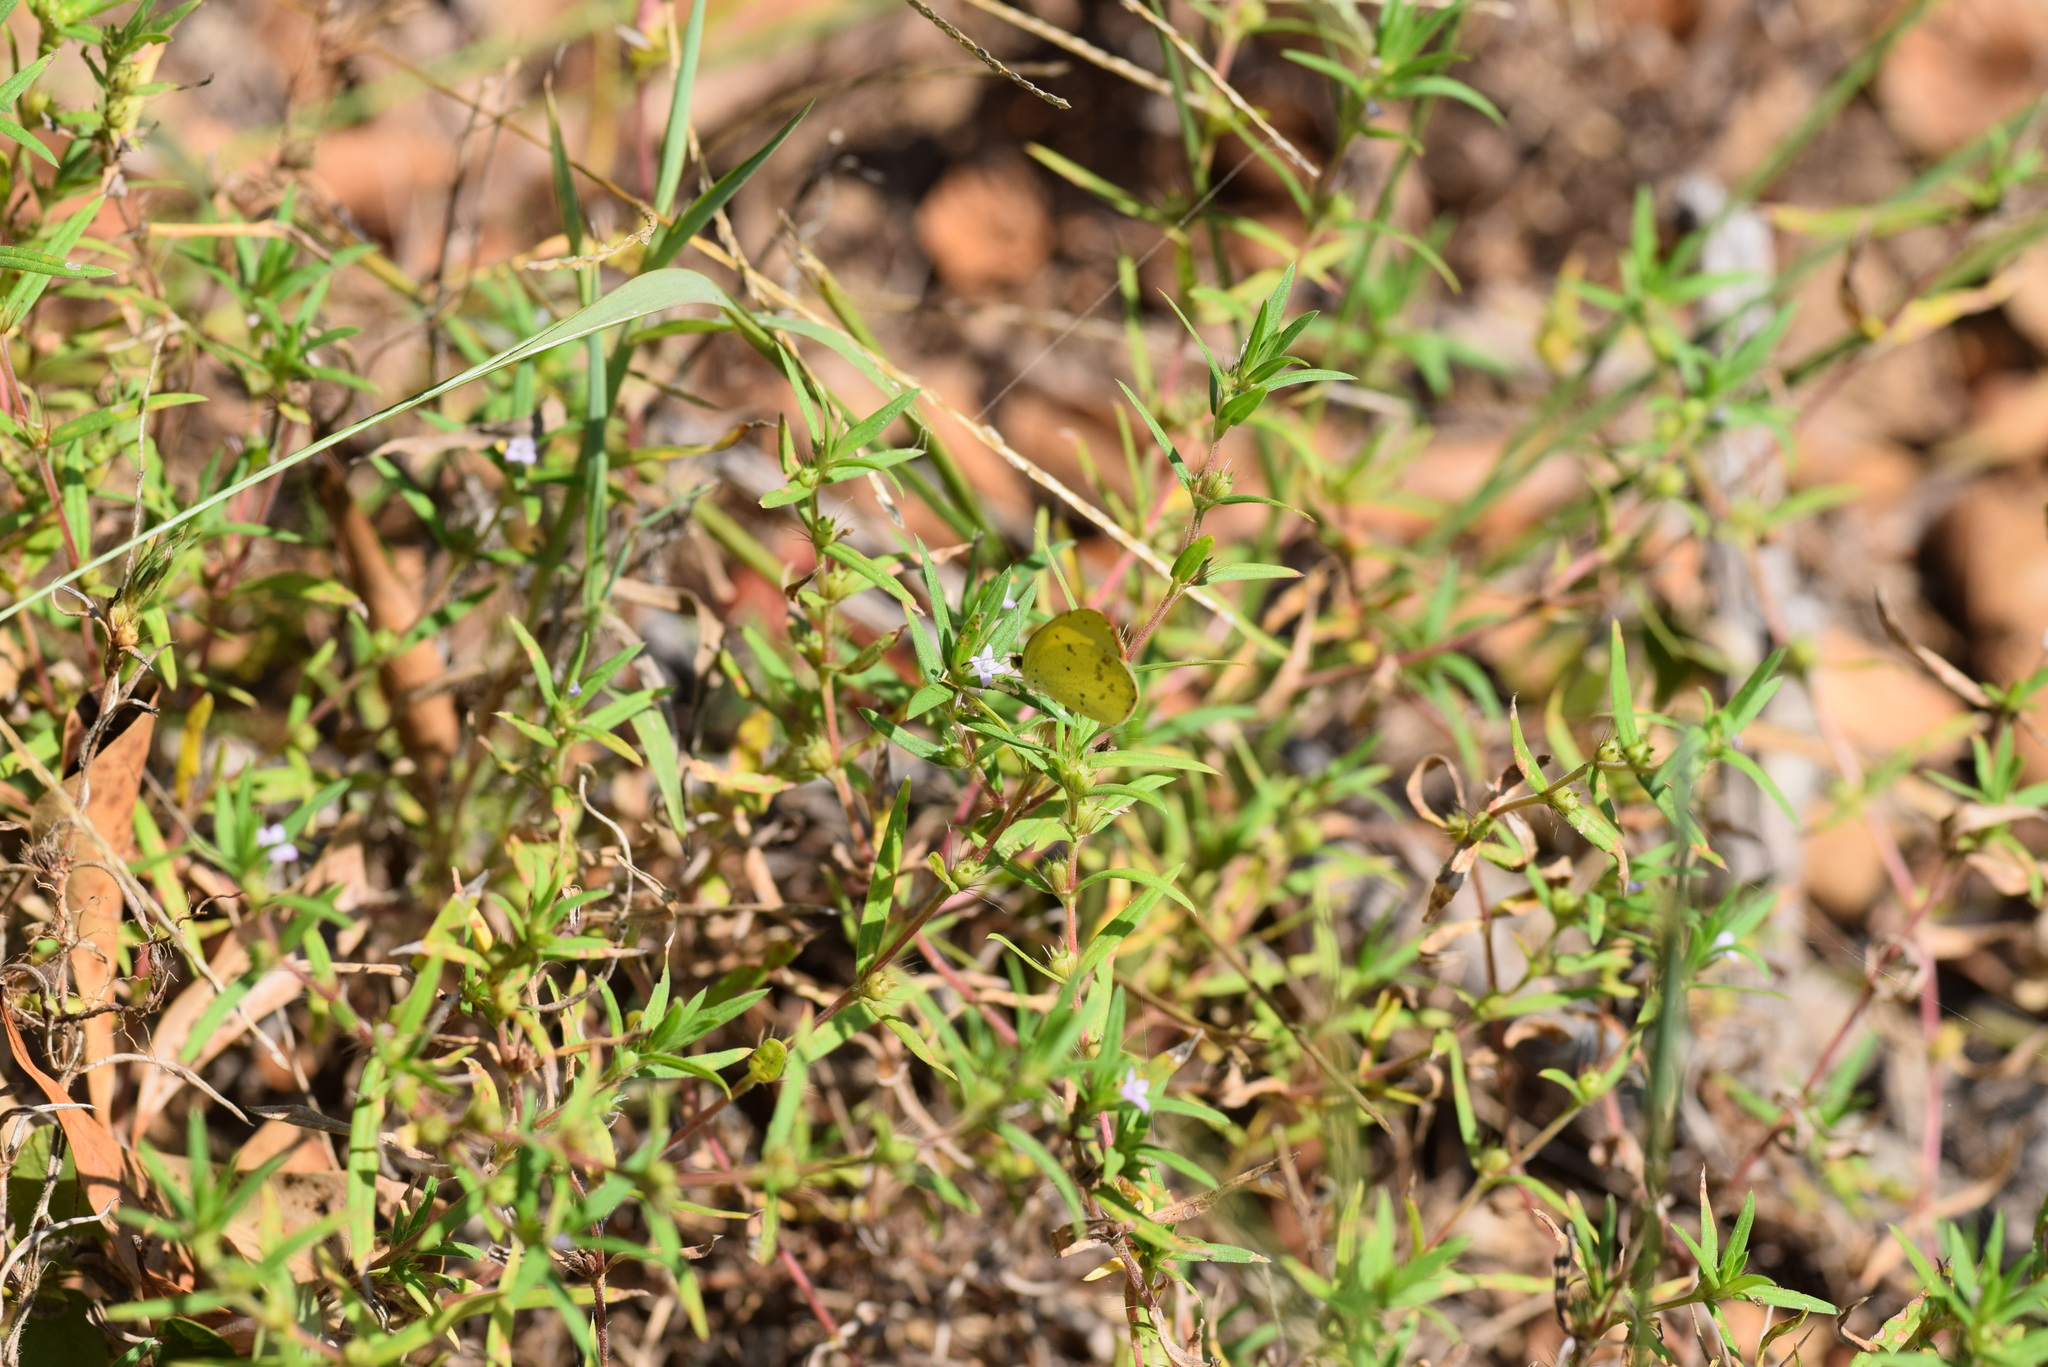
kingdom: Animalia
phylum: Arthropoda
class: Insecta
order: Lepidoptera
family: Pieridae
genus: Pyrisitia
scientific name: Pyrisitia lisa
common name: Little yellow
